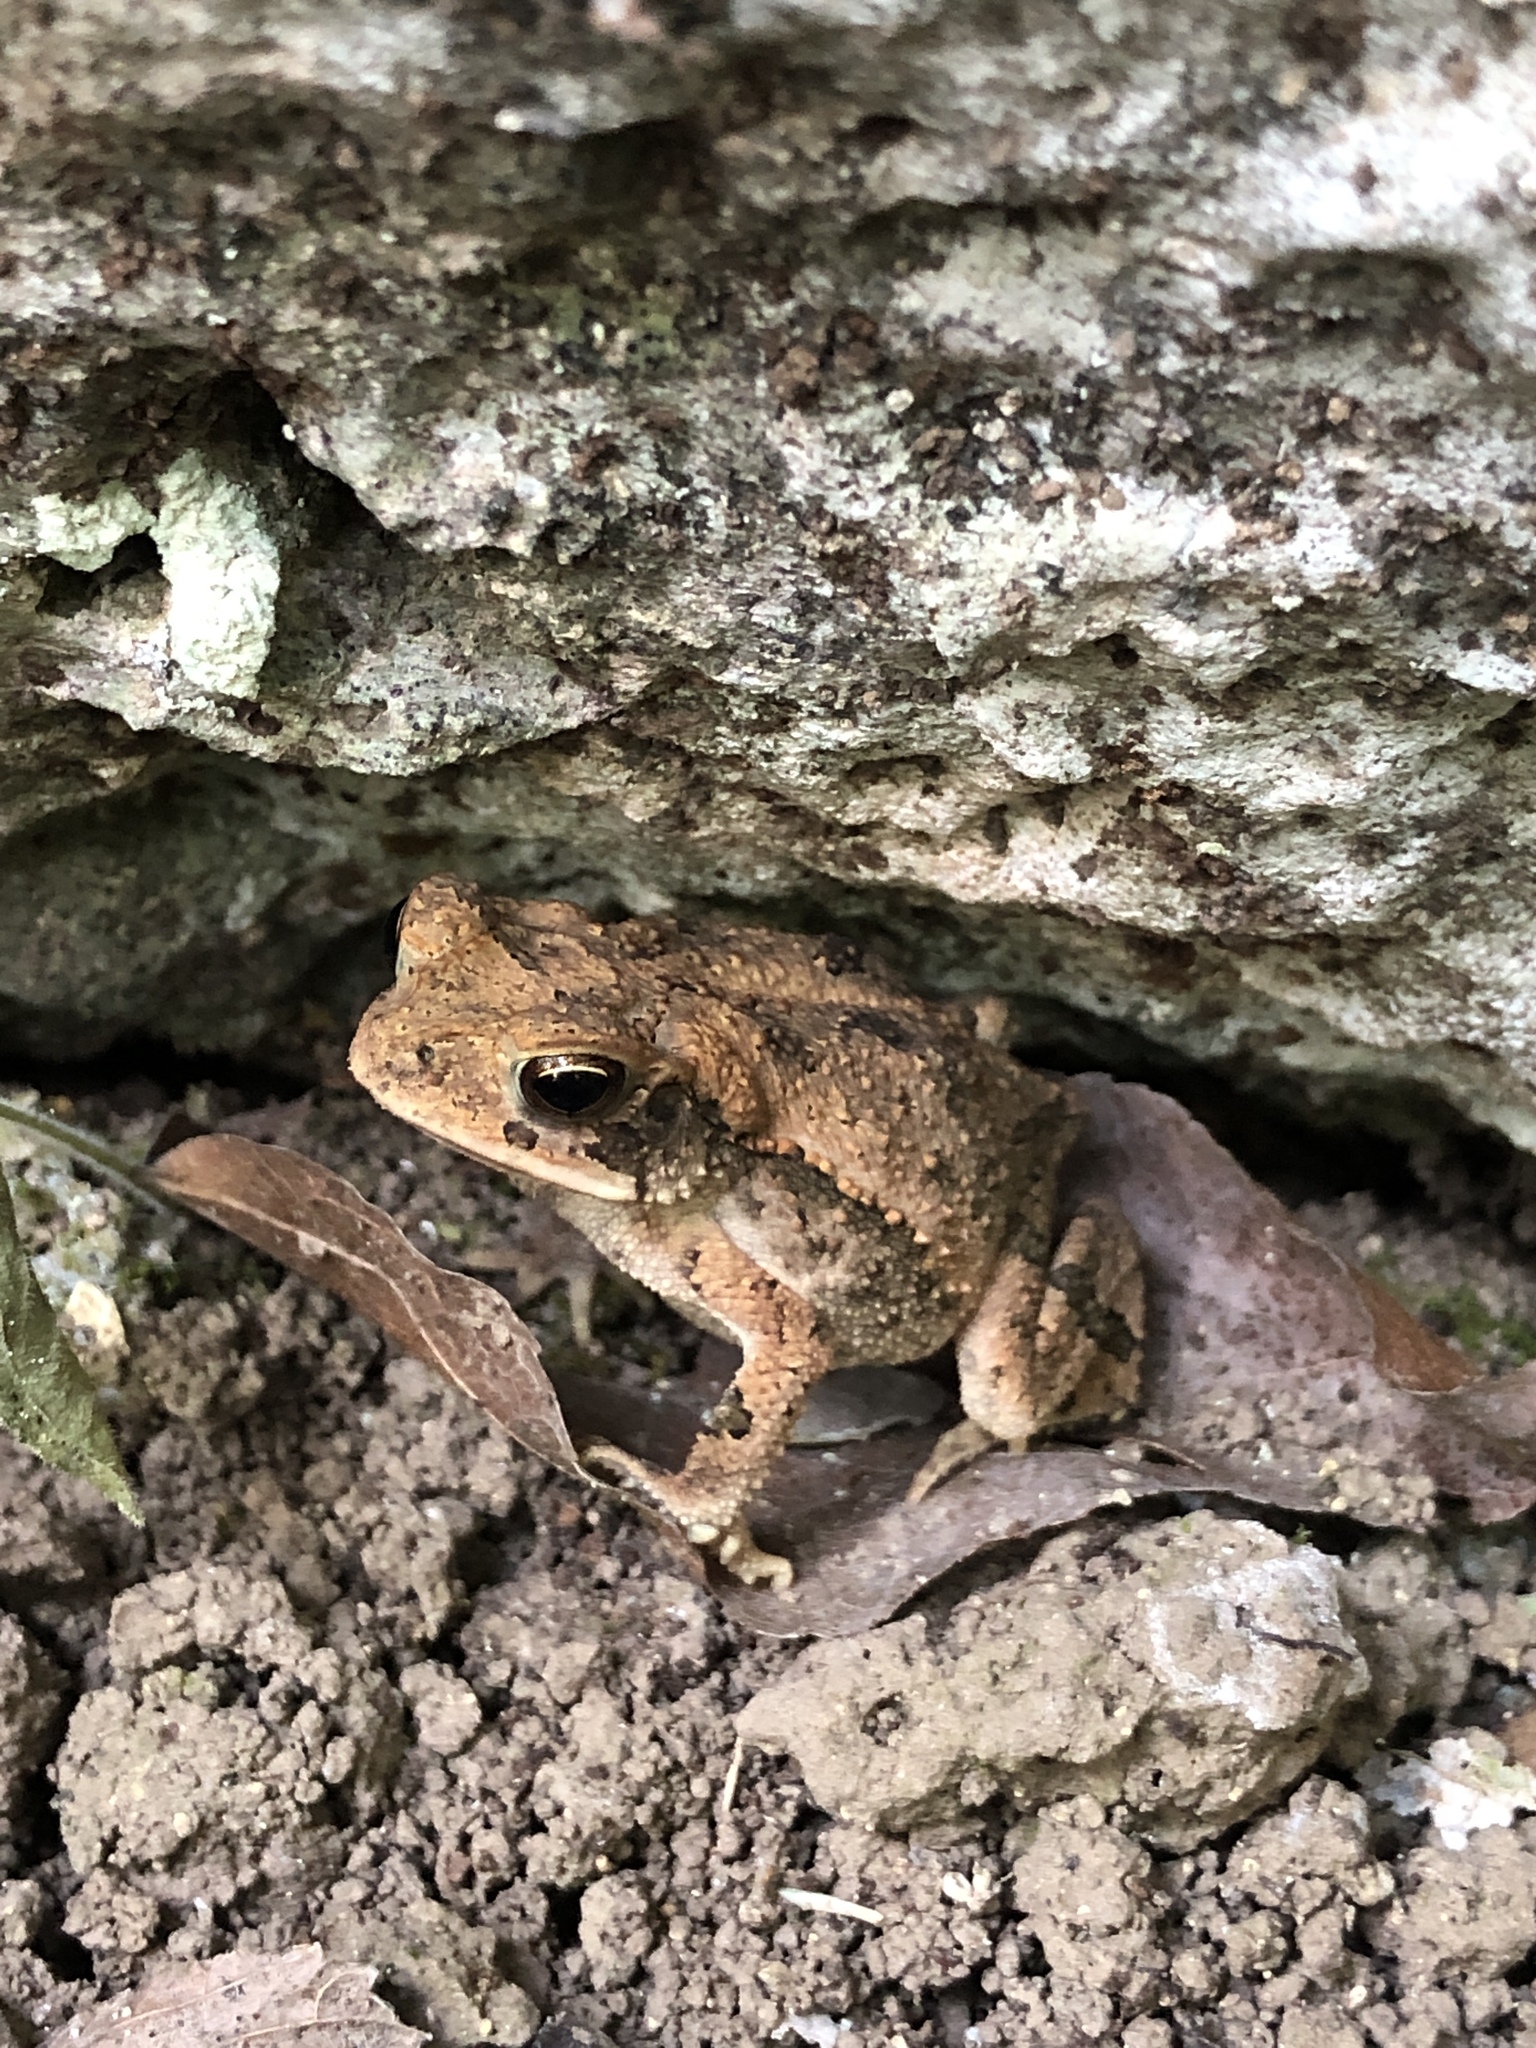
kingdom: Animalia
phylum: Chordata
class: Amphibia
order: Anura
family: Bufonidae
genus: Incilius
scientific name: Incilius nebulifer
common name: Gulf coast toad
